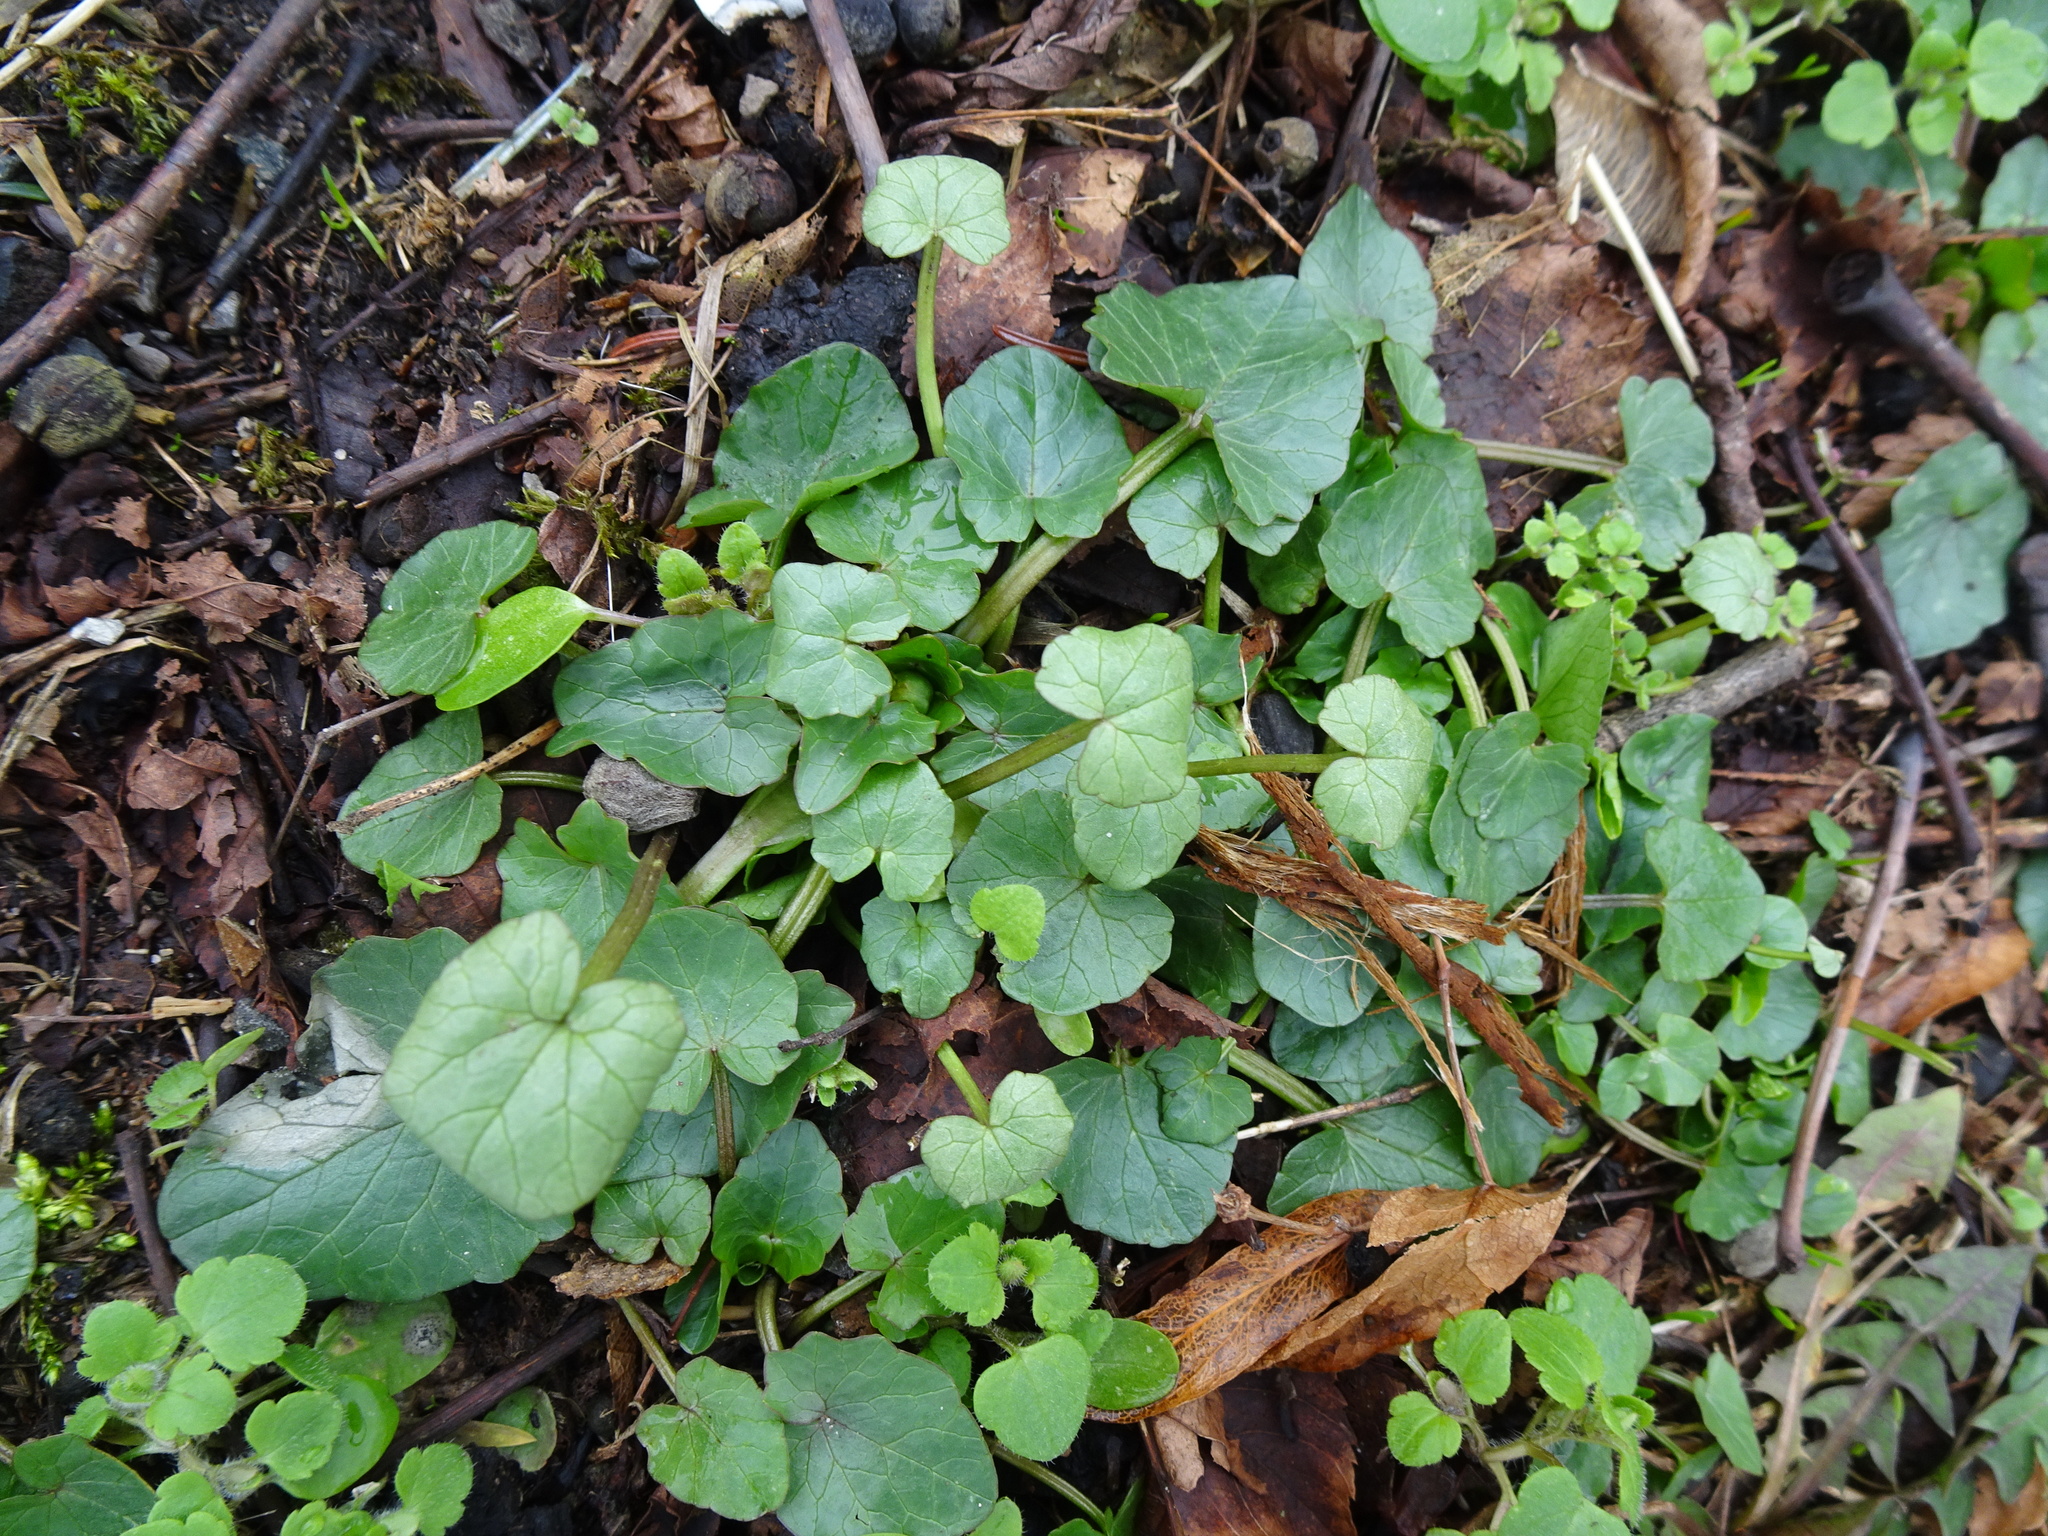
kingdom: Plantae
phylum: Tracheophyta
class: Magnoliopsida
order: Ranunculales
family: Ranunculaceae
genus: Ficaria
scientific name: Ficaria verna
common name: Lesser celandine
